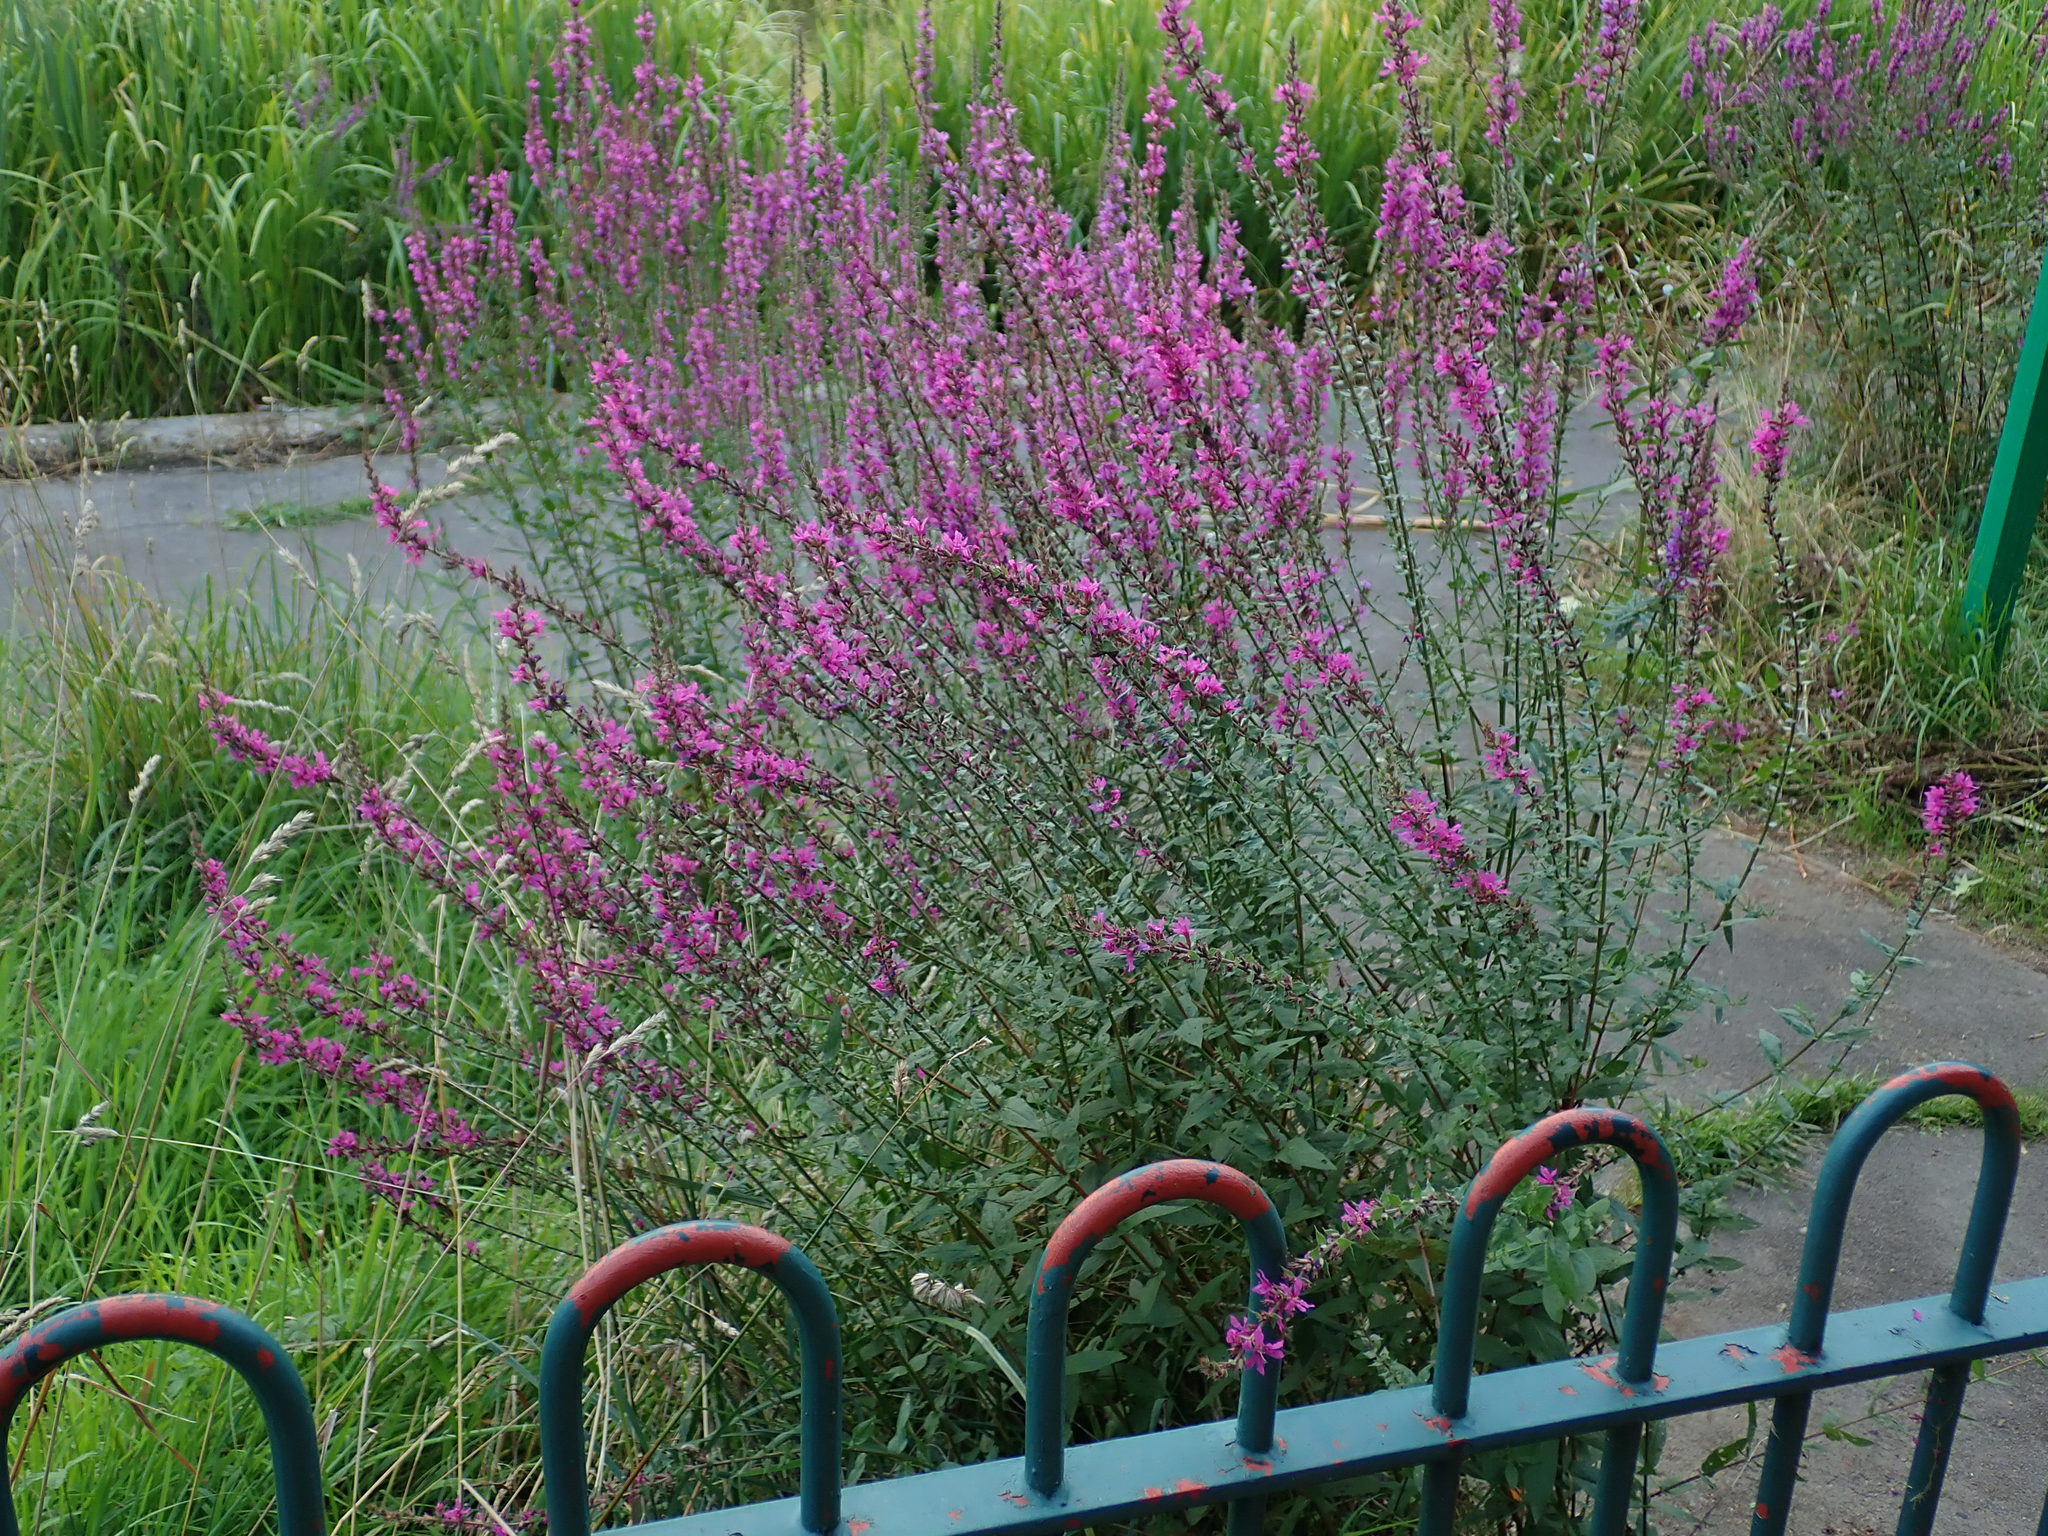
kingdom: Plantae
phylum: Tracheophyta
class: Magnoliopsida
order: Myrtales
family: Lythraceae
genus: Lythrum
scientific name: Lythrum salicaria
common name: Purple loosestrife
